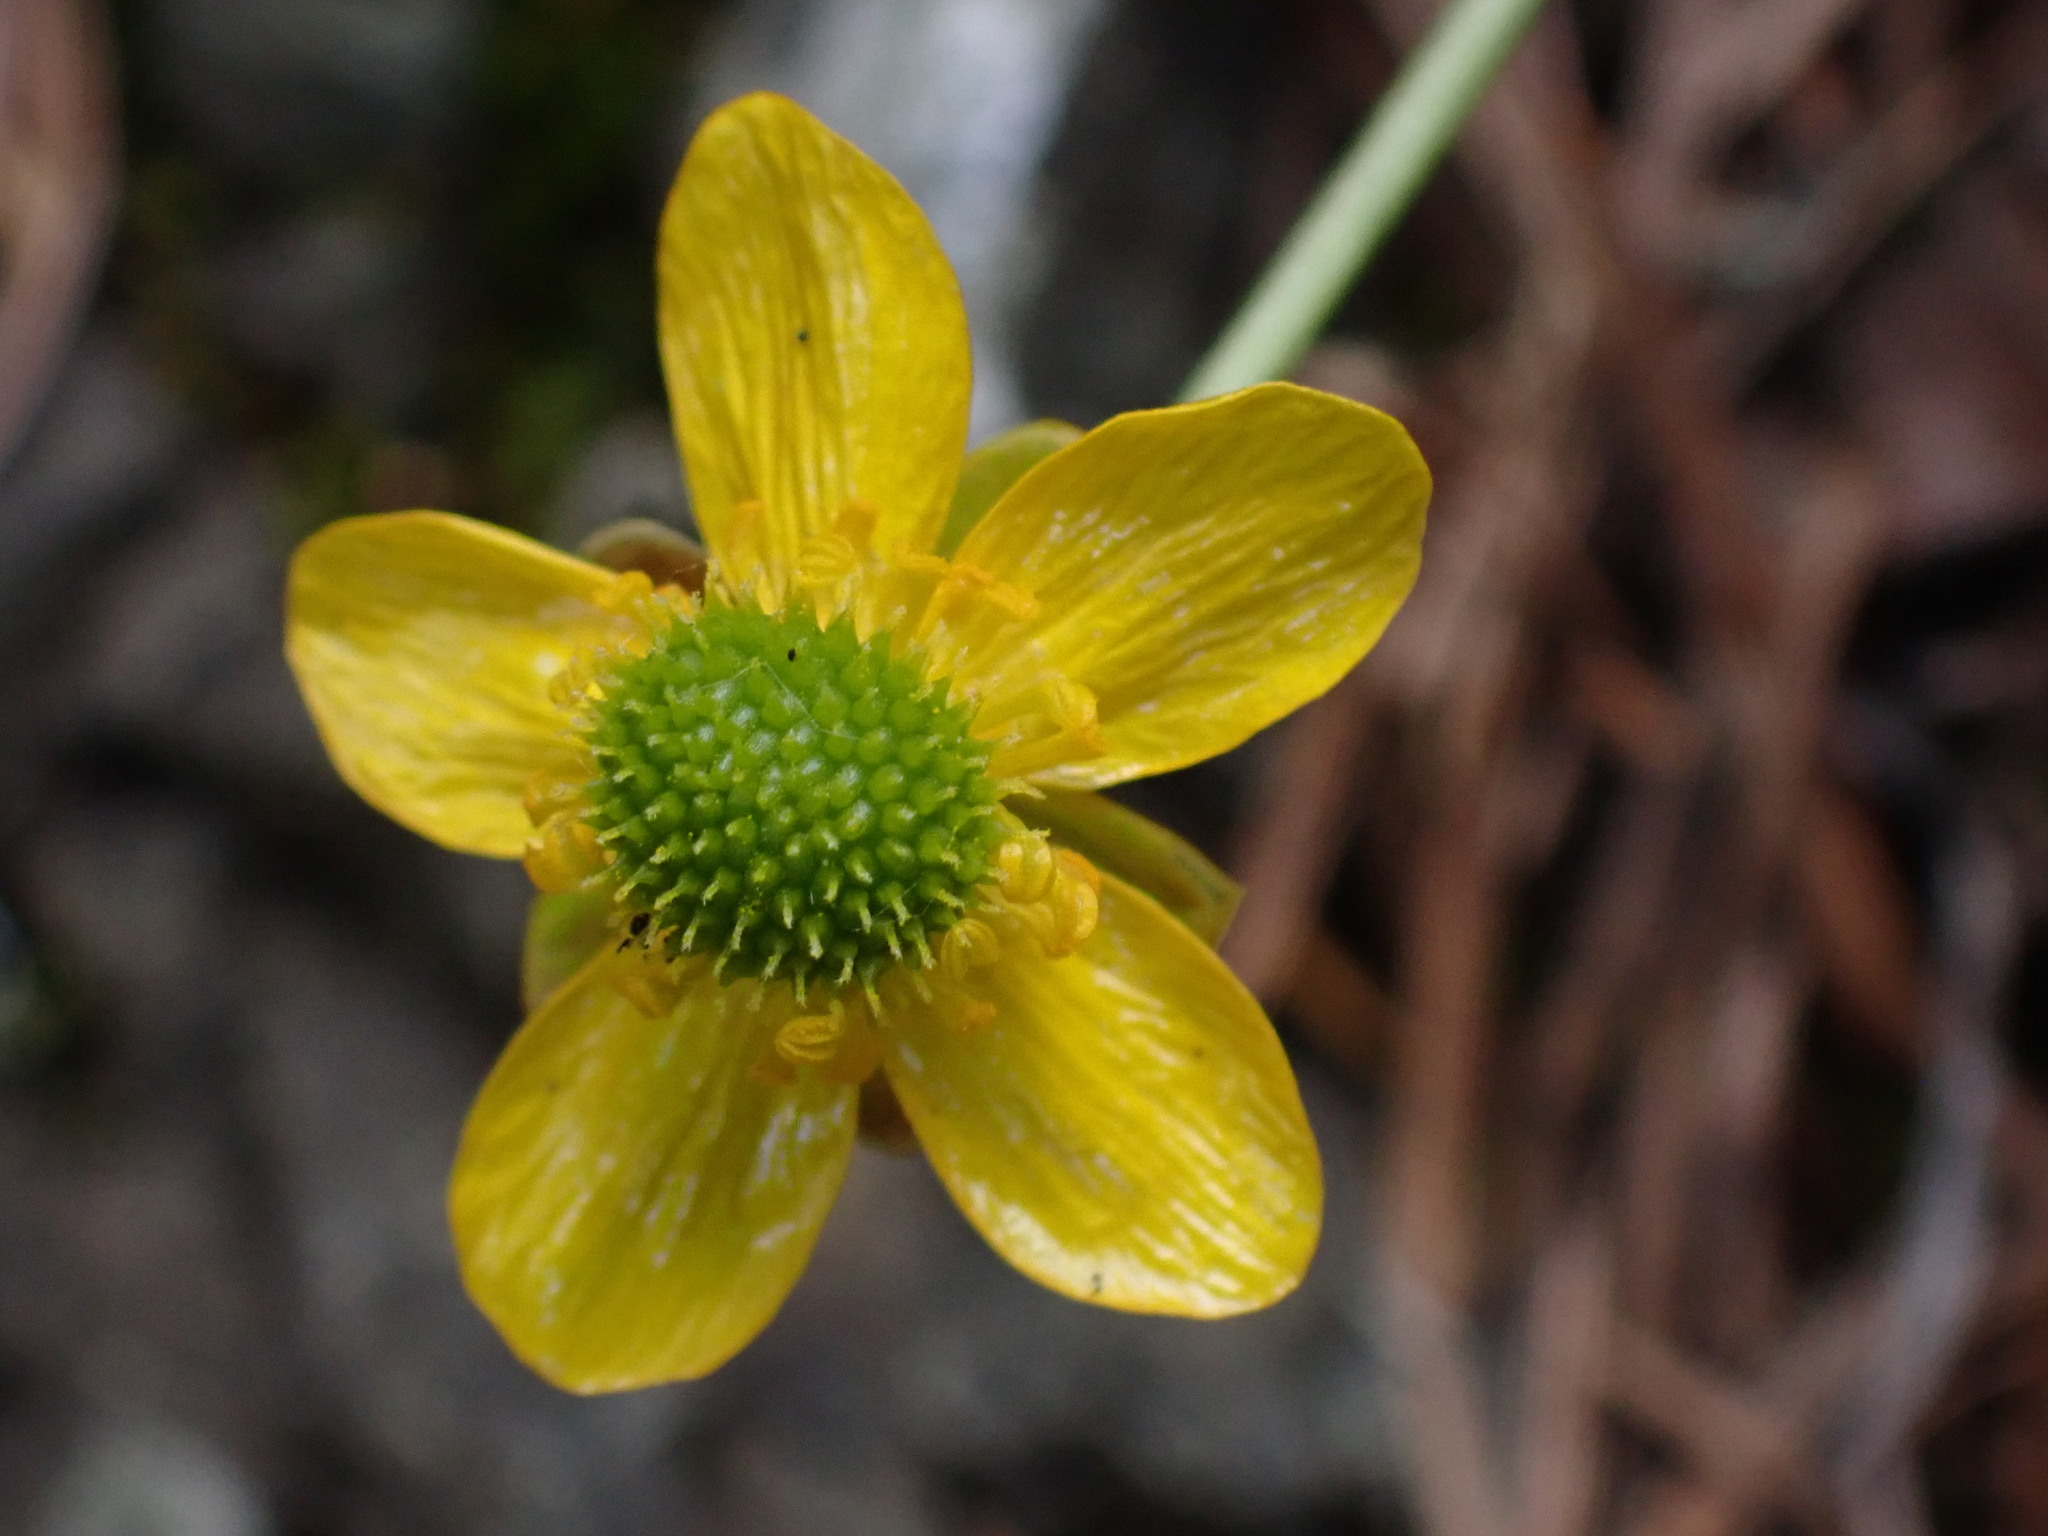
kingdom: Plantae
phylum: Tracheophyta
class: Magnoliopsida
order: Ranunculales
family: Ranunculaceae
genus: Ranunculus
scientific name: Ranunculus glaberrimus
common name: Sagebrush buttercup
